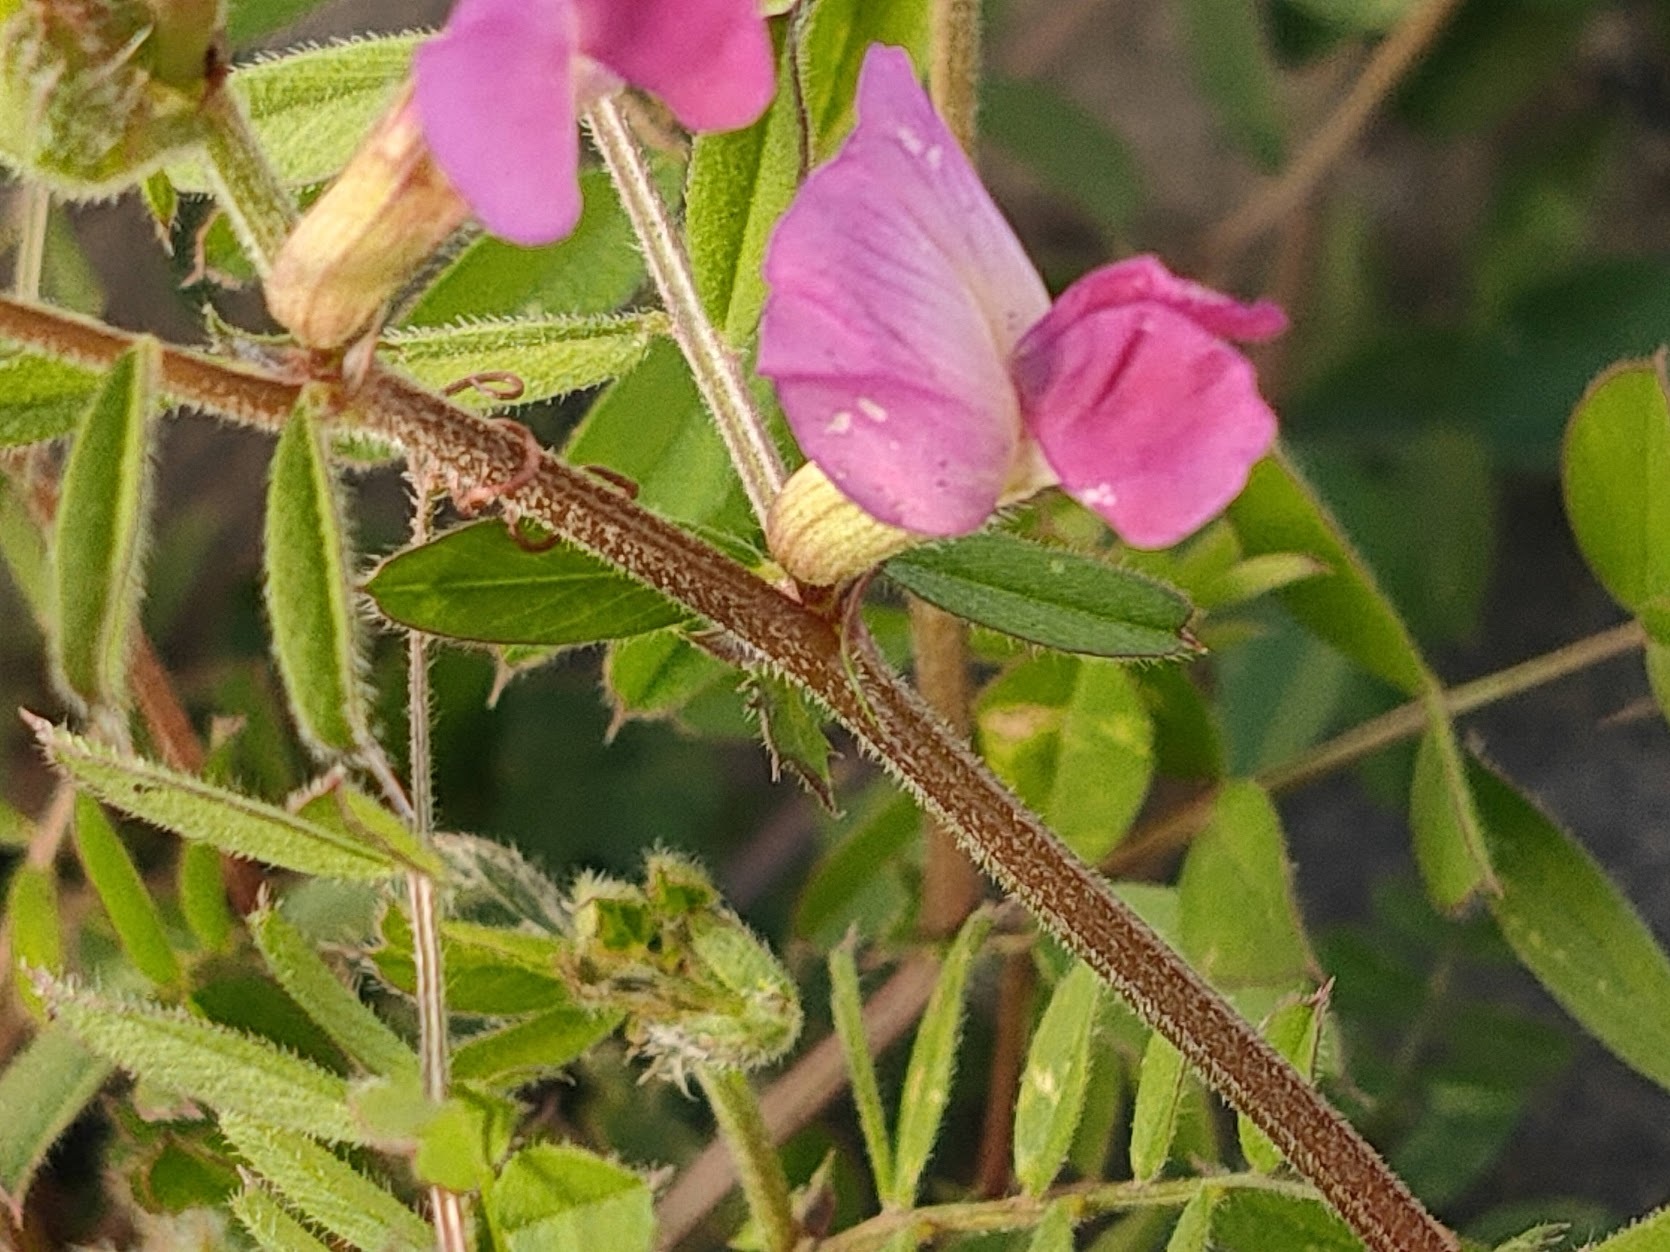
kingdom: Plantae
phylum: Tracheophyta
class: Magnoliopsida
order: Fabales
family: Fabaceae
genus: Vicia
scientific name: Vicia sativa
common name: Garden vetch
